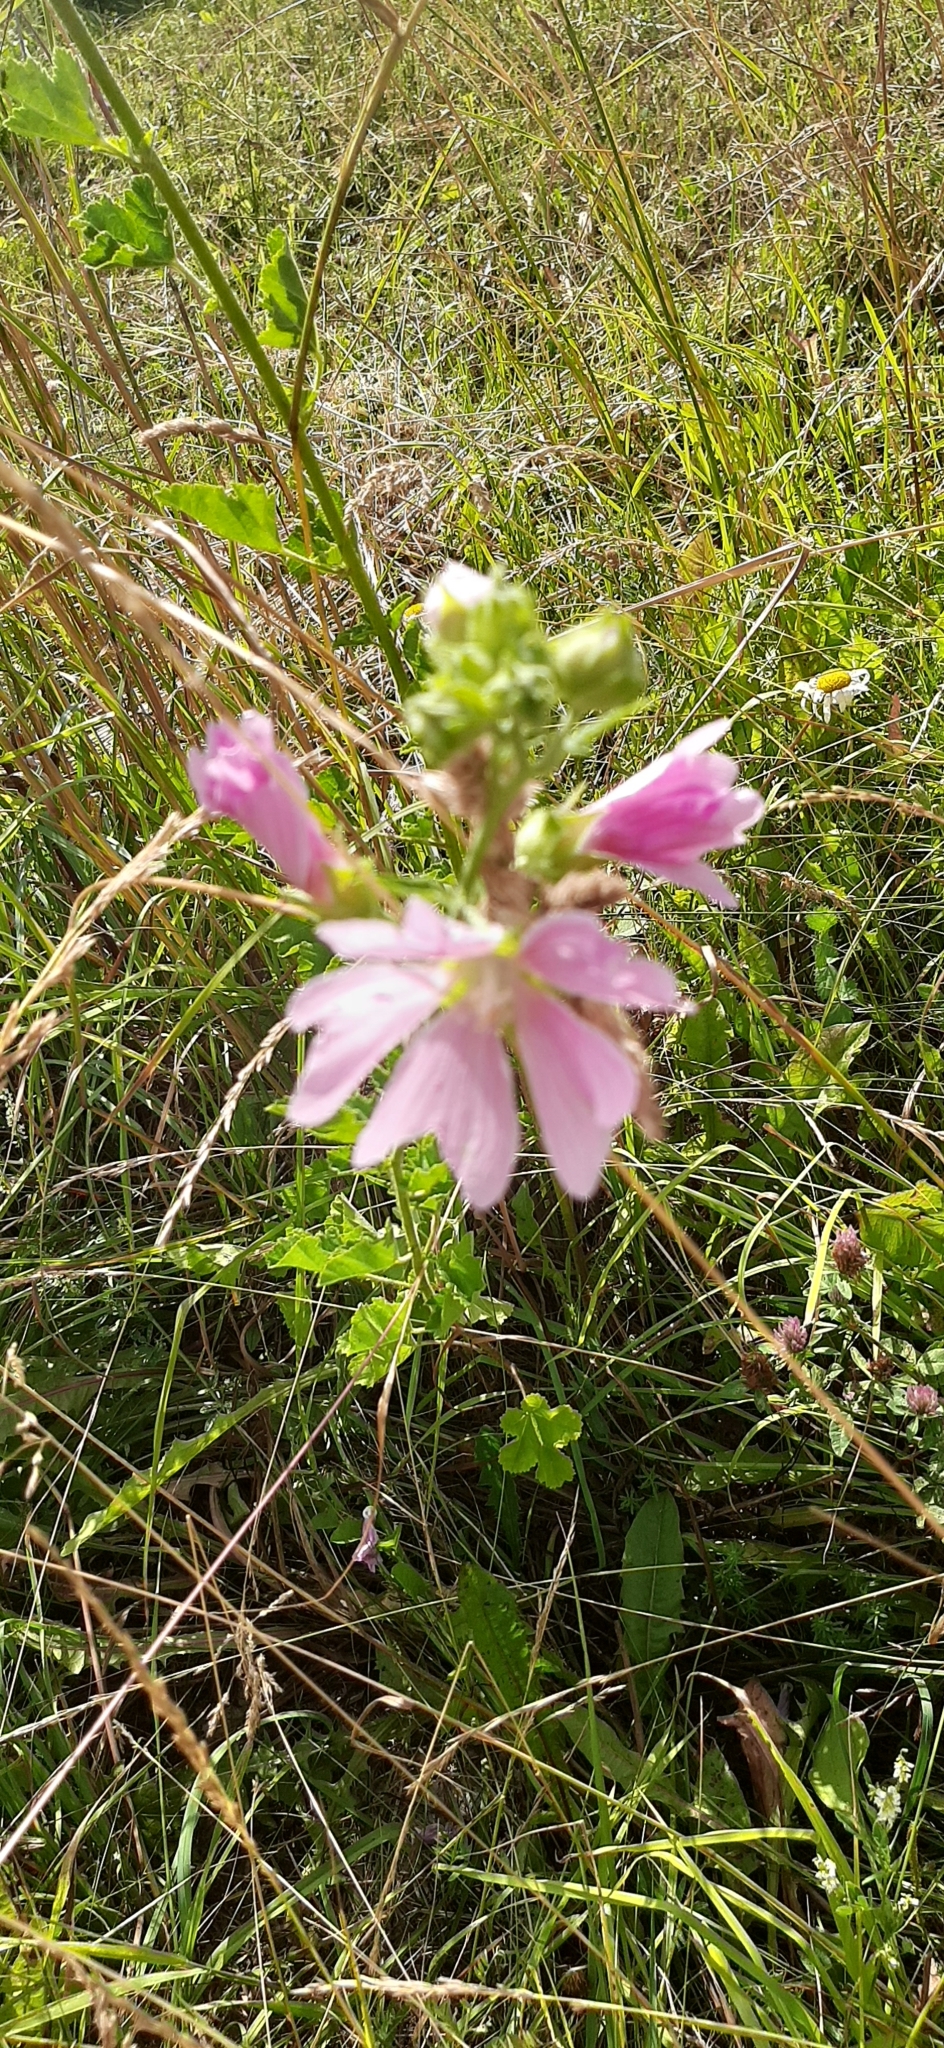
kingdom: Plantae
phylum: Tracheophyta
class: Magnoliopsida
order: Malvales
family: Malvaceae
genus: Malva
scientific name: Malva thuringiaca
